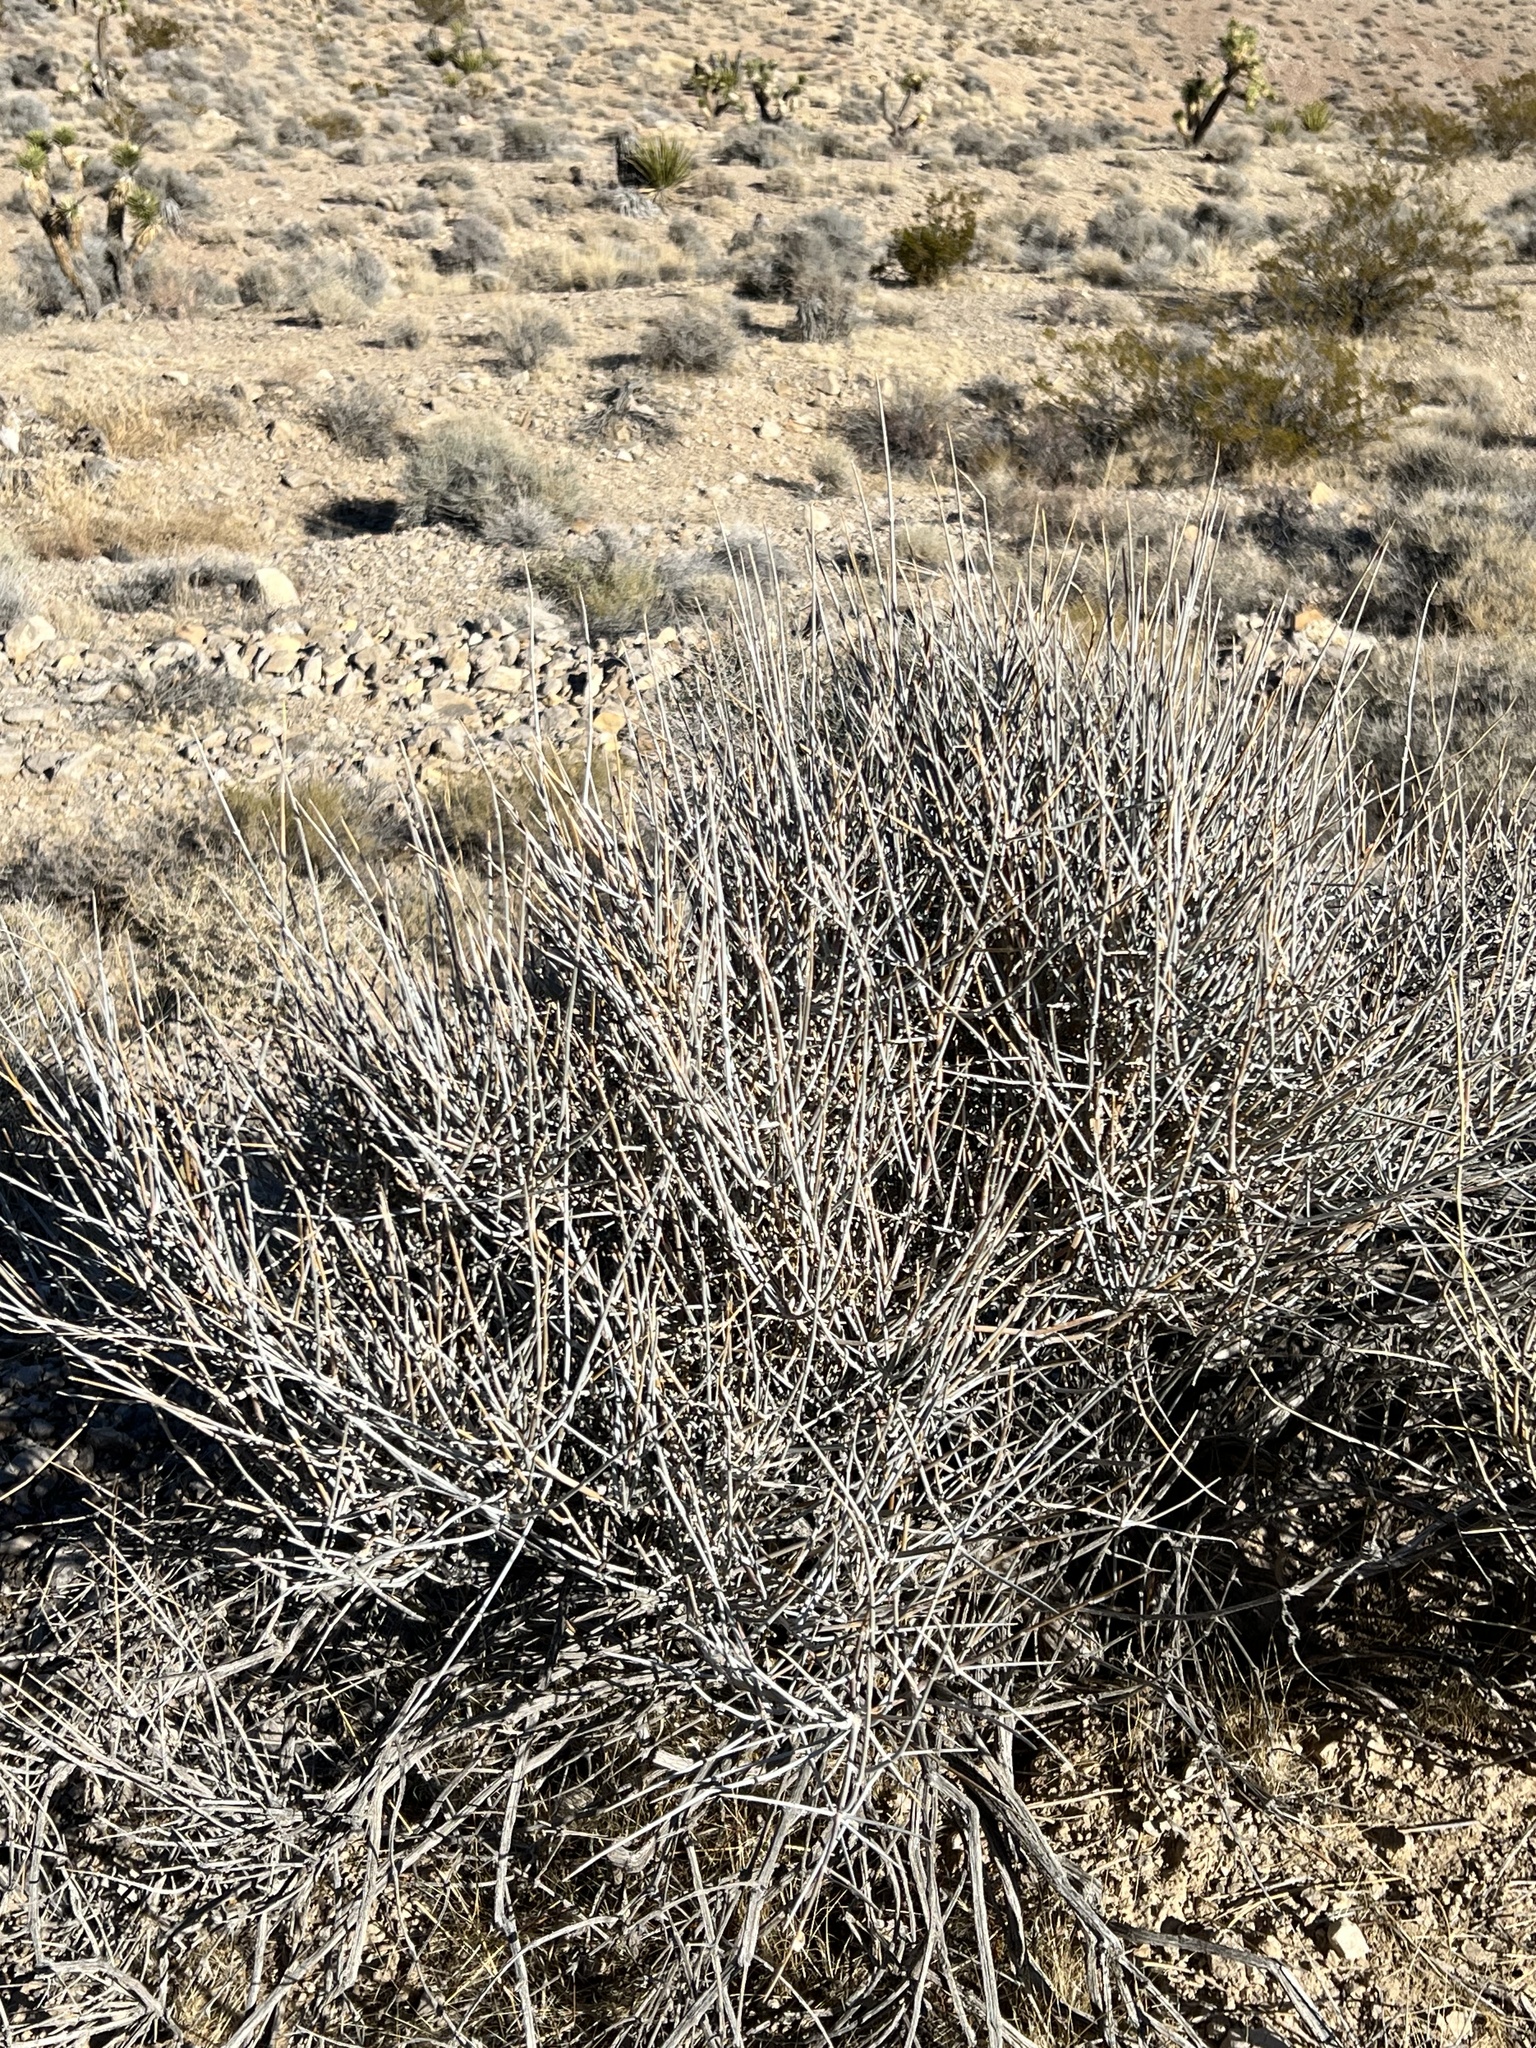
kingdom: Plantae
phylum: Tracheophyta
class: Gnetopsida
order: Ephedrales
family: Ephedraceae
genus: Ephedra
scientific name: Ephedra nevadensis
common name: Gray ephedra
